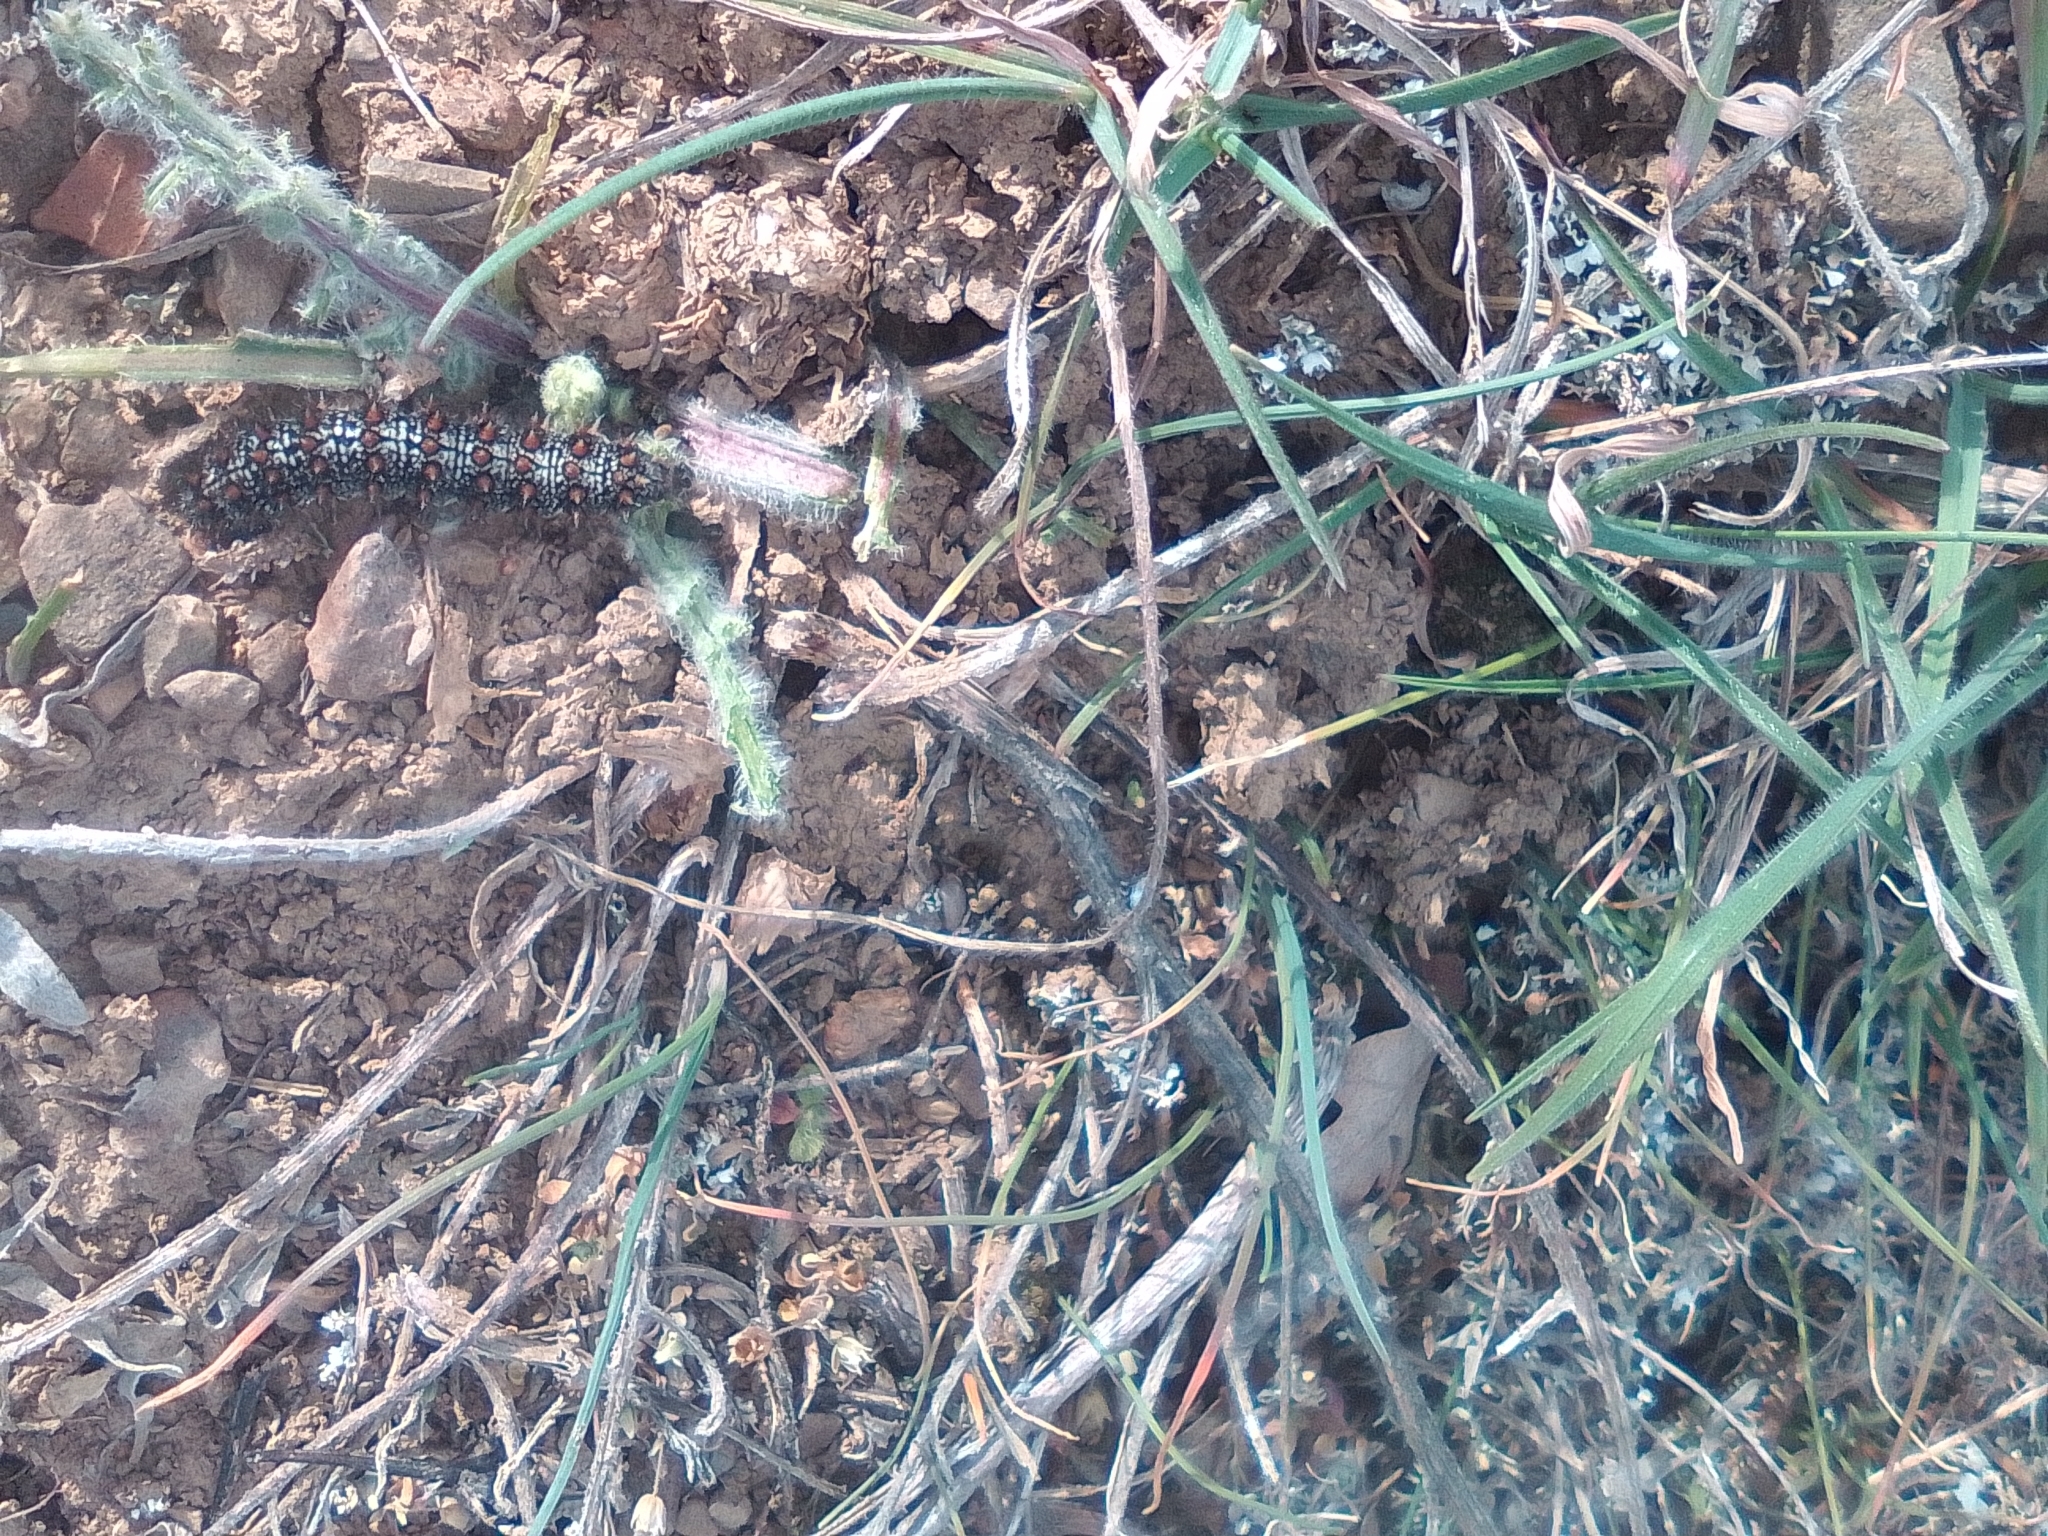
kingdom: Animalia
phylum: Arthropoda
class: Insecta
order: Lepidoptera
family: Nymphalidae
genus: Melitaea
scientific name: Melitaea phoebe
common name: Knapweed fritillary
